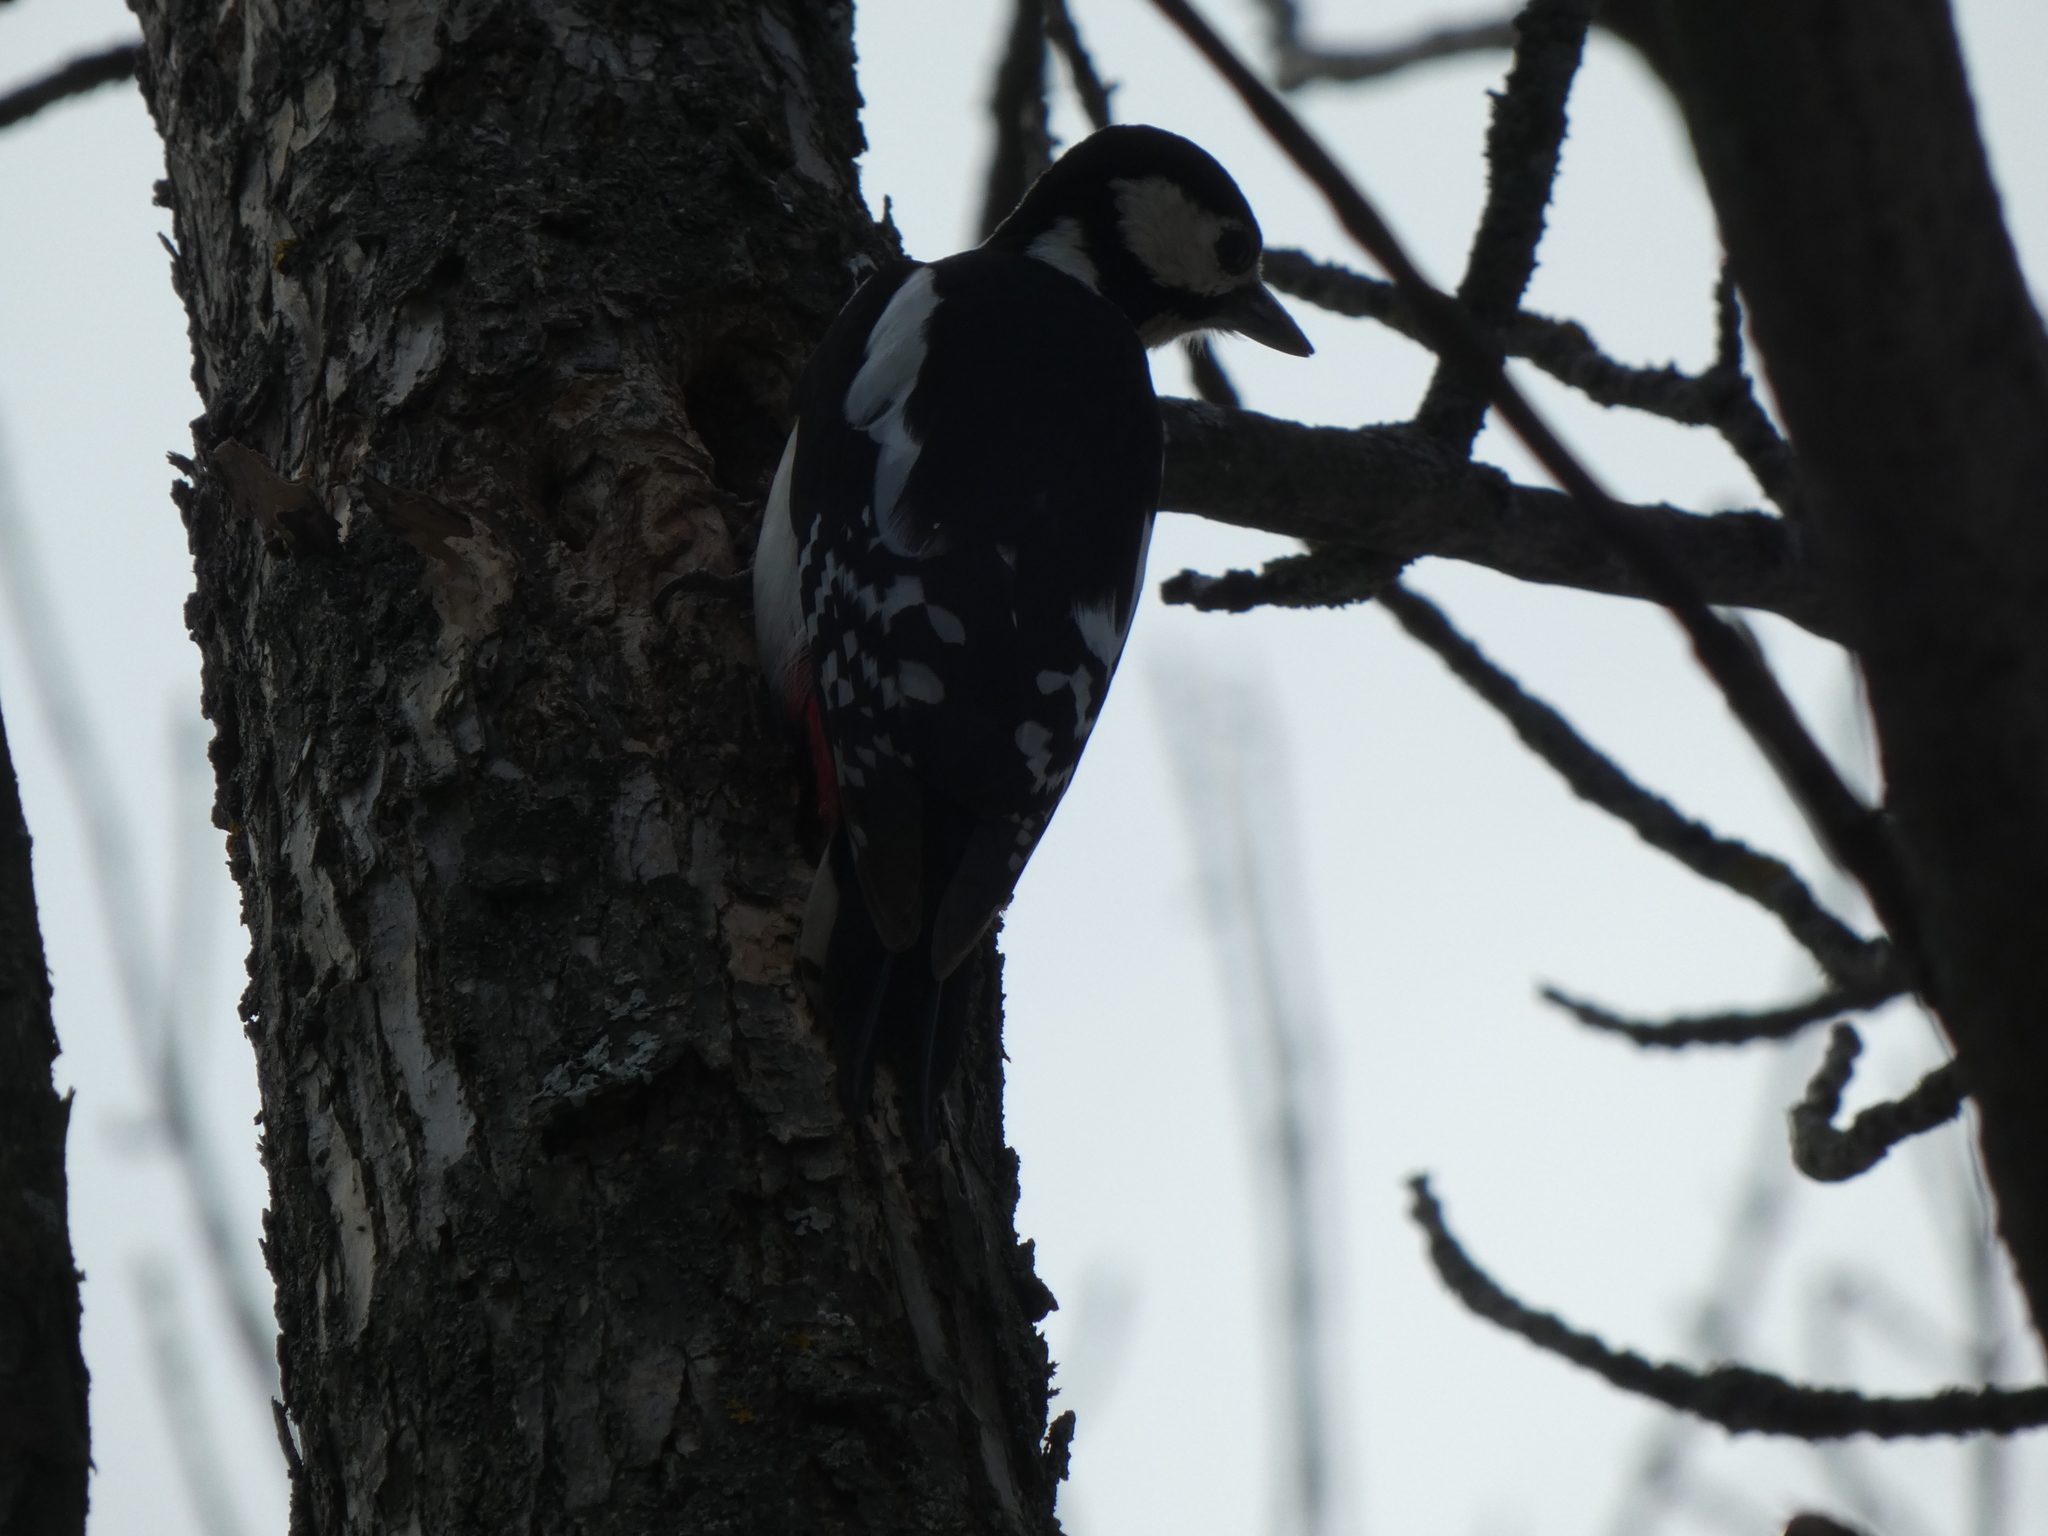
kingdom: Animalia
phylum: Chordata
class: Aves
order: Piciformes
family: Picidae
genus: Dendrocopos
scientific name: Dendrocopos major
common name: Great spotted woodpecker
